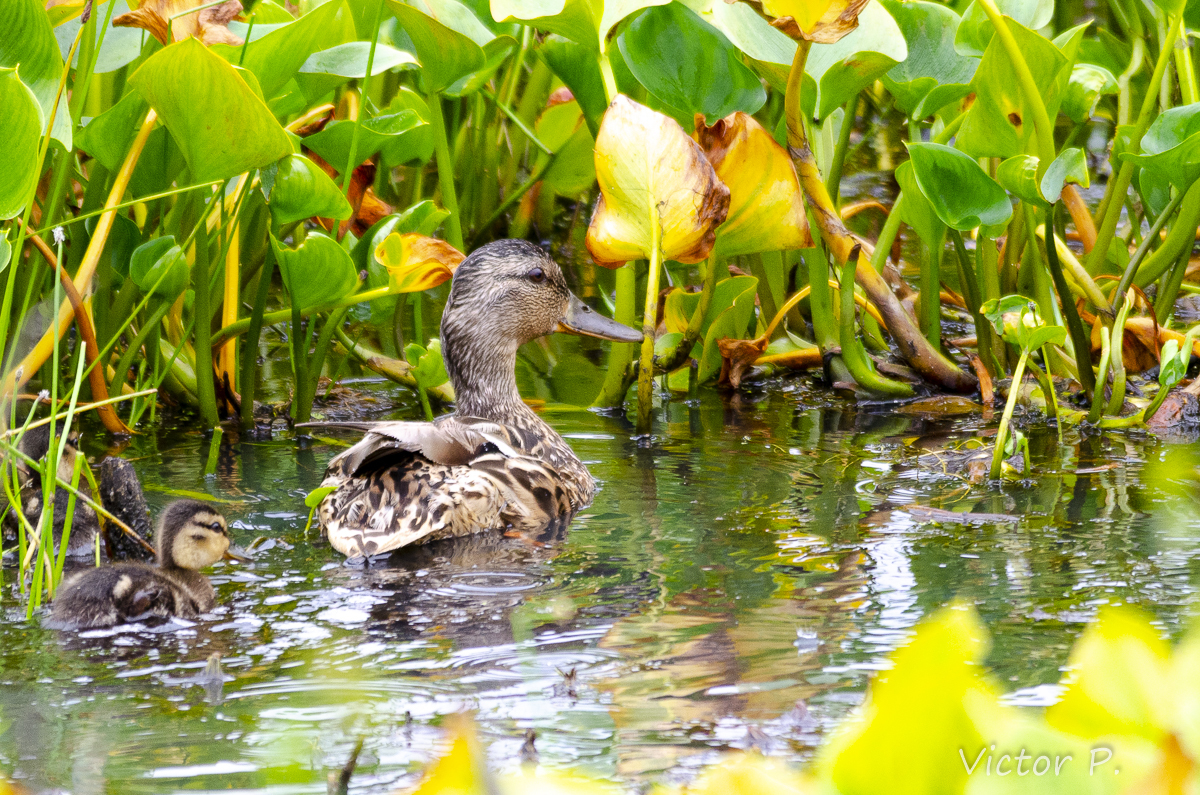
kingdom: Animalia
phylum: Chordata
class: Aves
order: Anseriformes
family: Anatidae
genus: Anas
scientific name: Anas platyrhynchos
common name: Mallard
